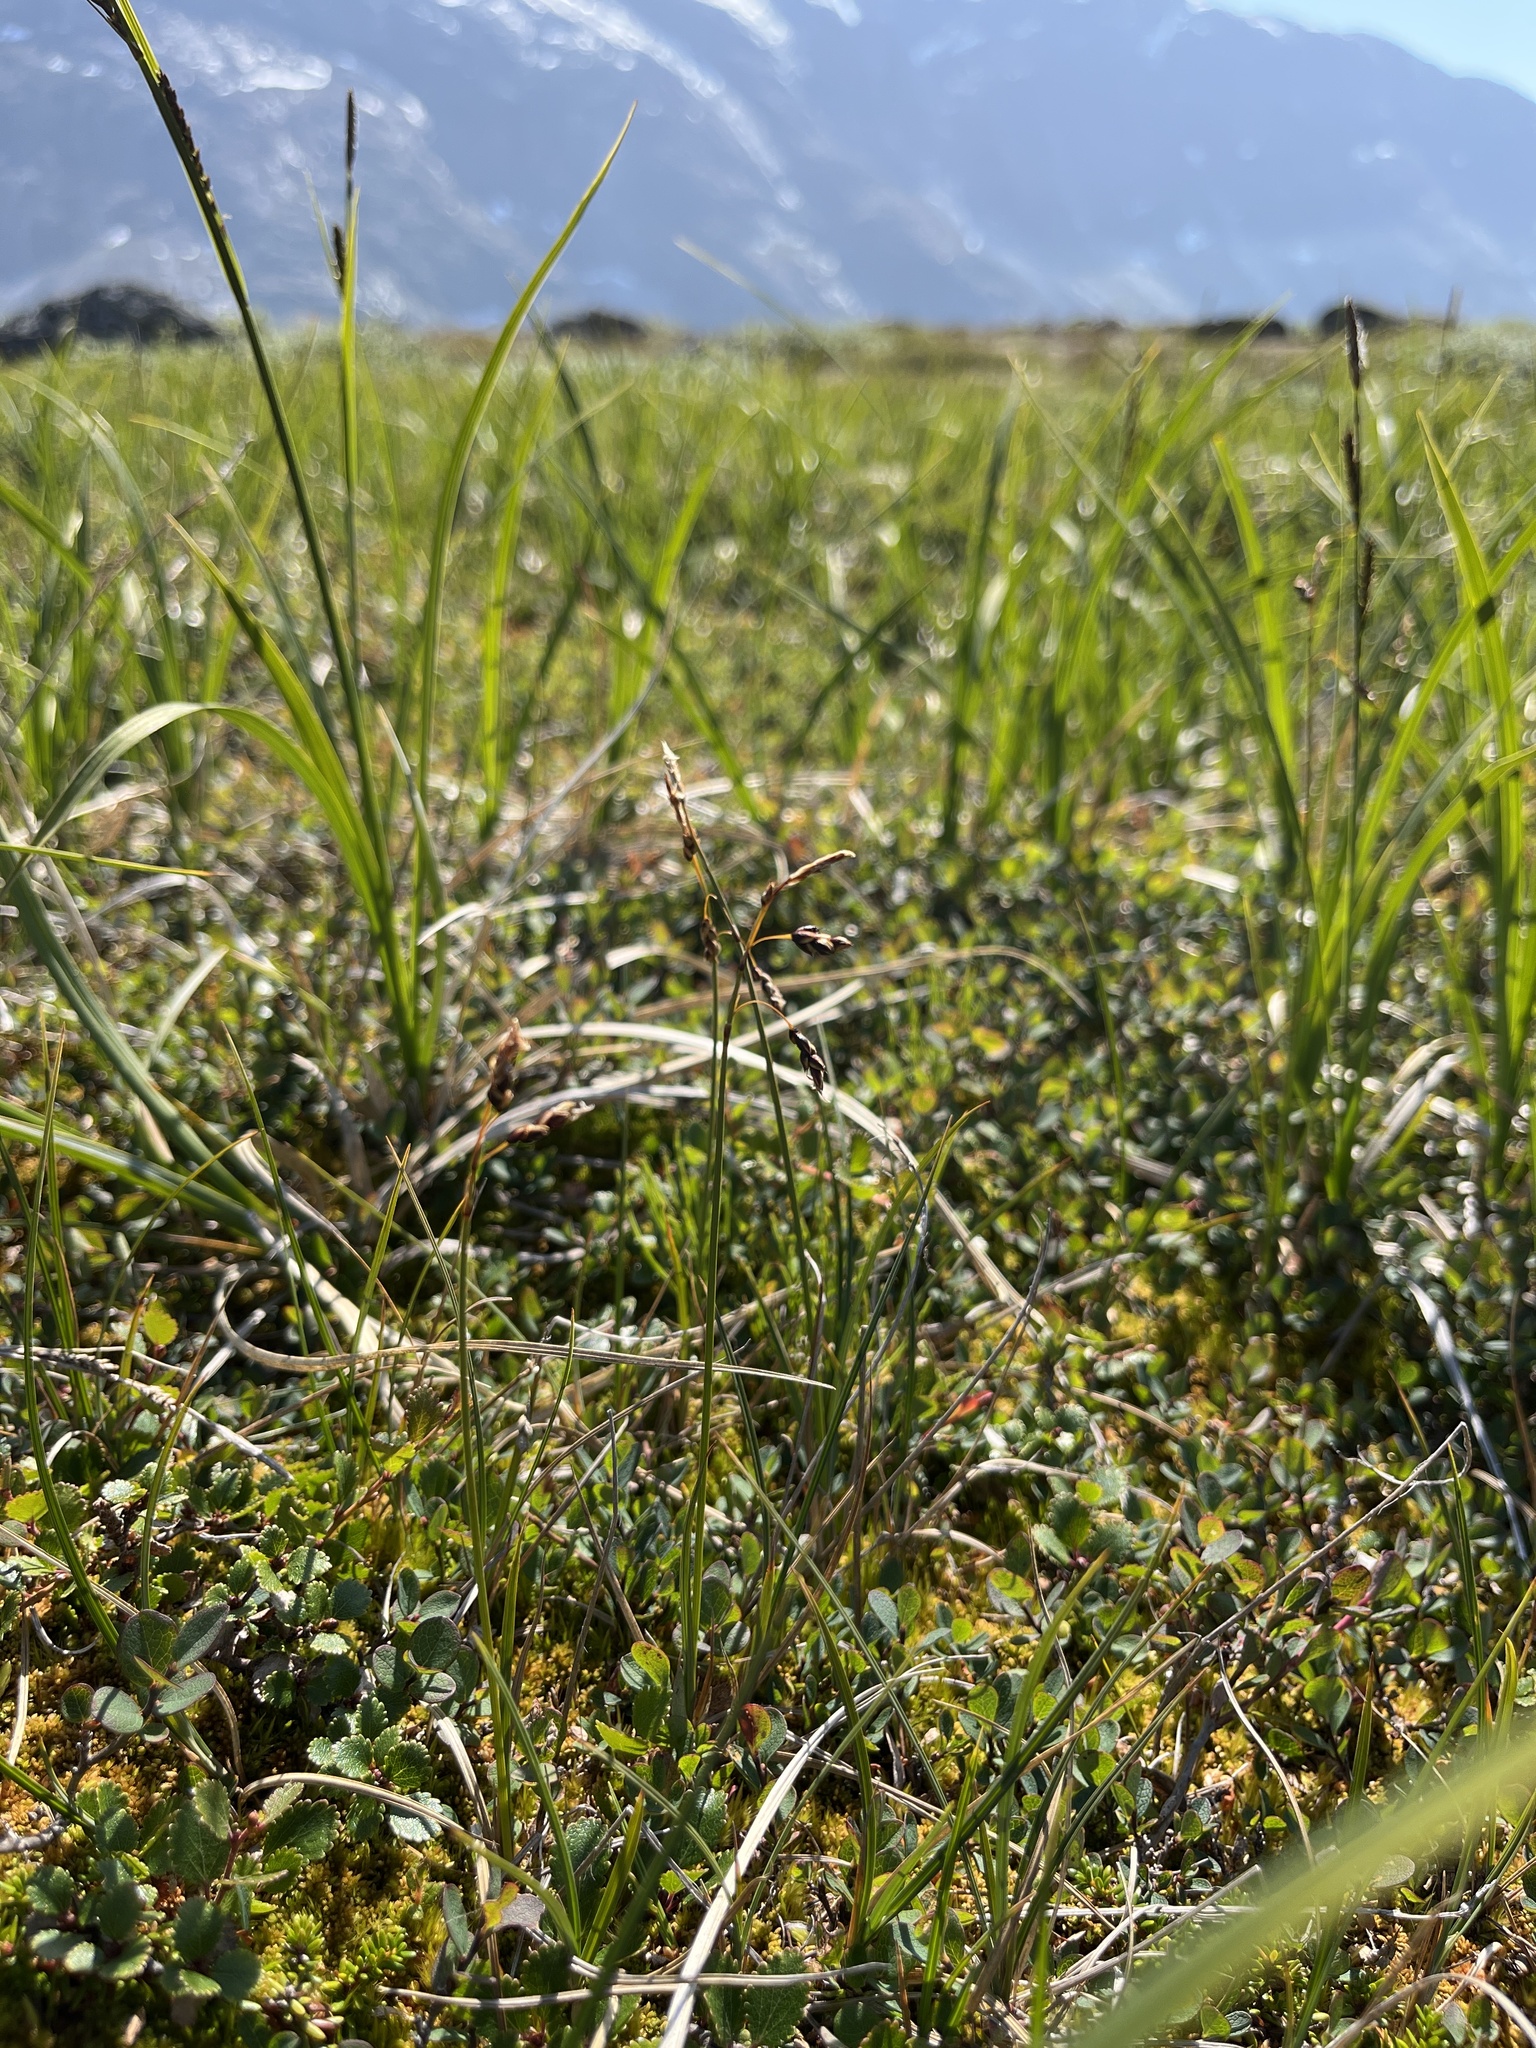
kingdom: Plantae
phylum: Tracheophyta
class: Liliopsida
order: Poales
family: Cyperaceae
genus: Carex
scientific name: Carex rariflora
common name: Loose-flowered alpine sedge
